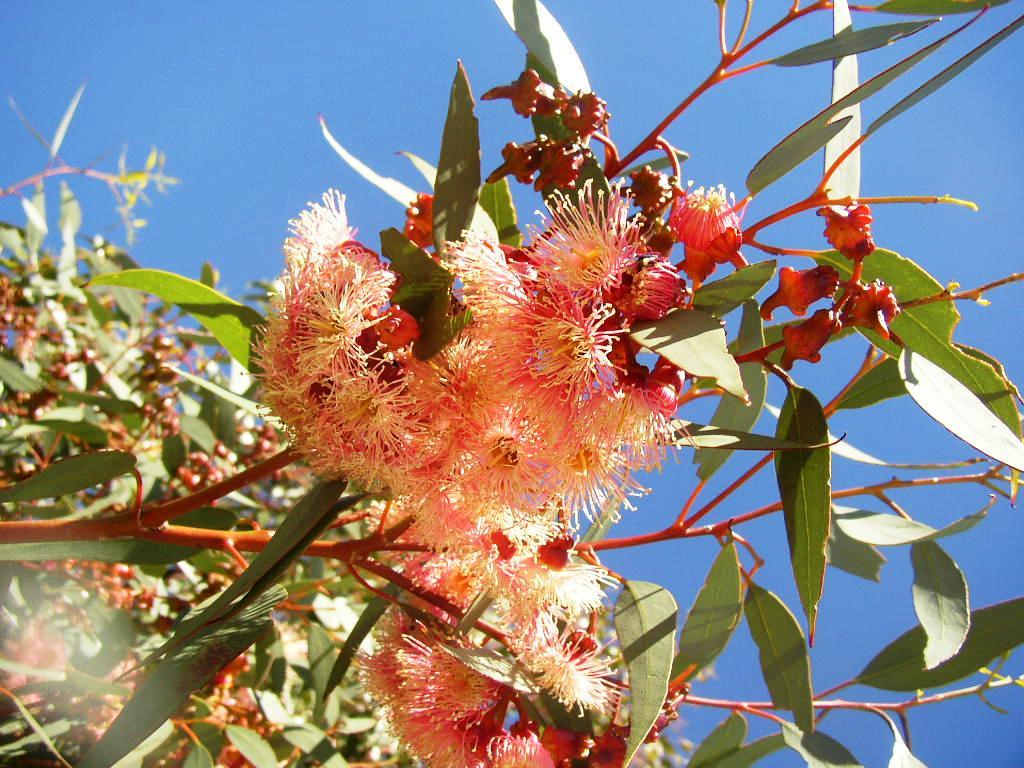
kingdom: Plantae
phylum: Tracheophyta
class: Magnoliopsida
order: Myrtales
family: Myrtaceae
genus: Eucalyptus
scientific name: Eucalyptus torquata
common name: Coral gum
